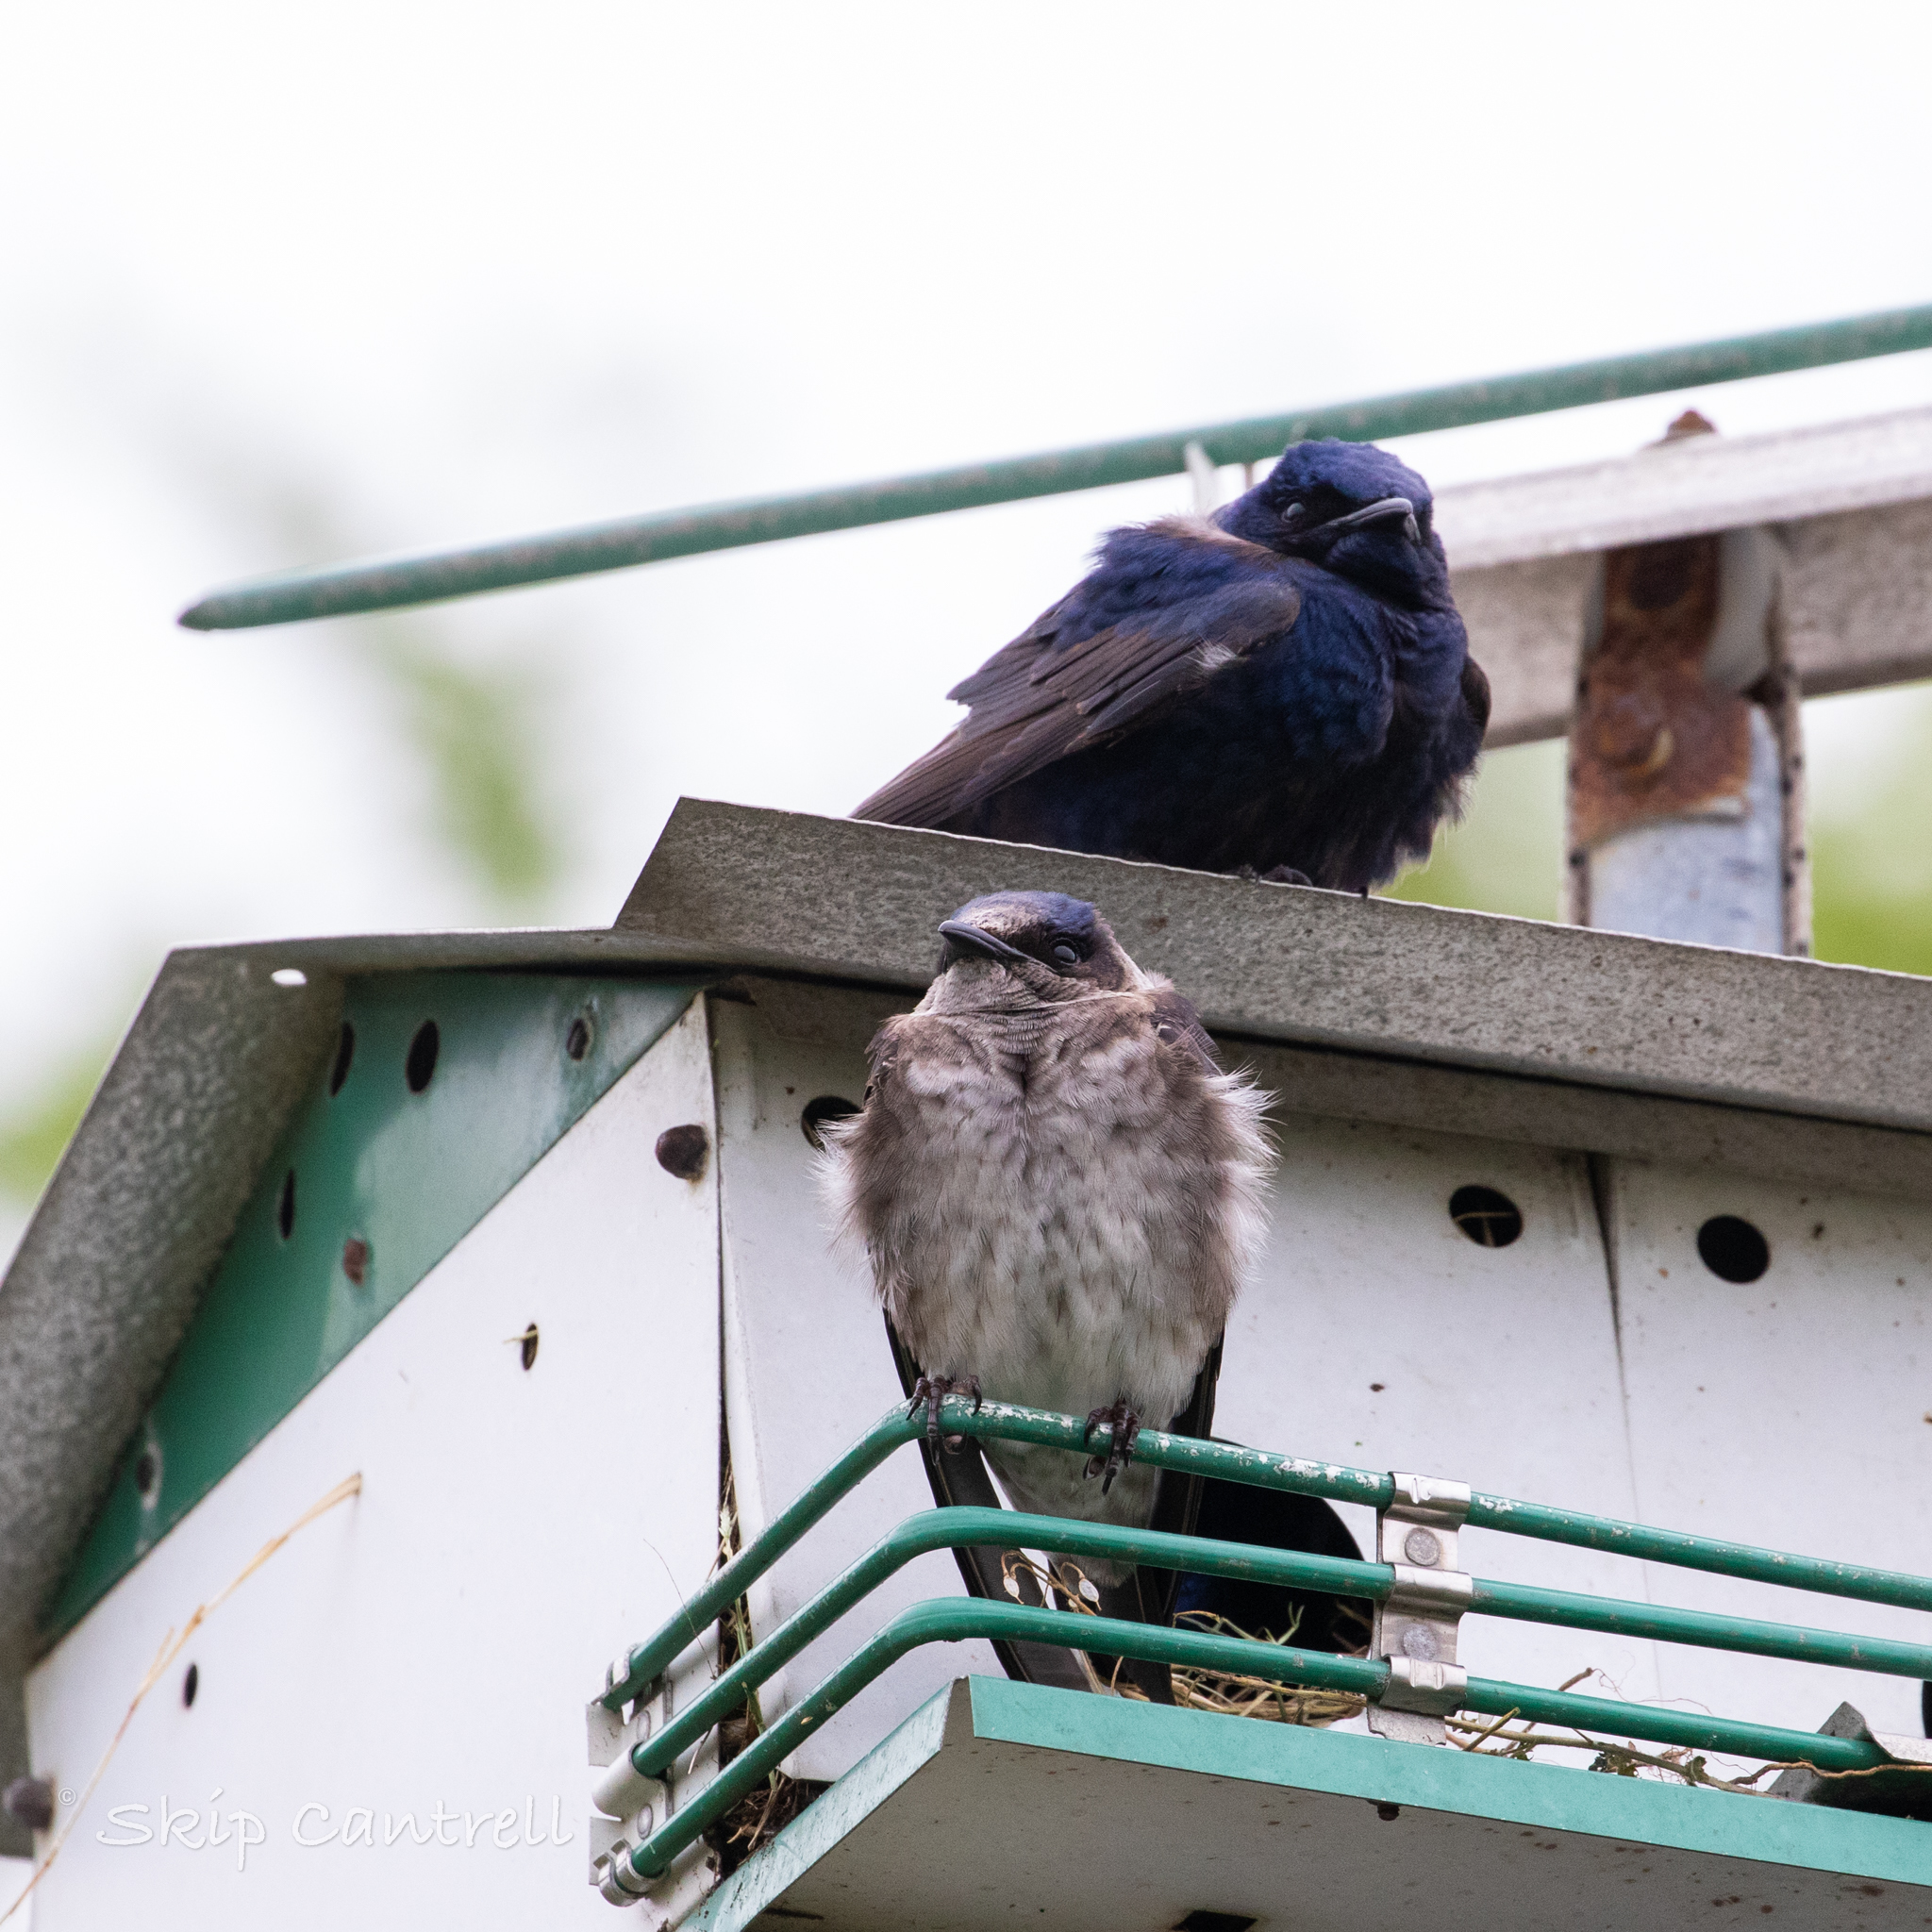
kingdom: Animalia
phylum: Chordata
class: Aves
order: Passeriformes
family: Hirundinidae
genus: Progne
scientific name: Progne subis
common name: Purple martin
